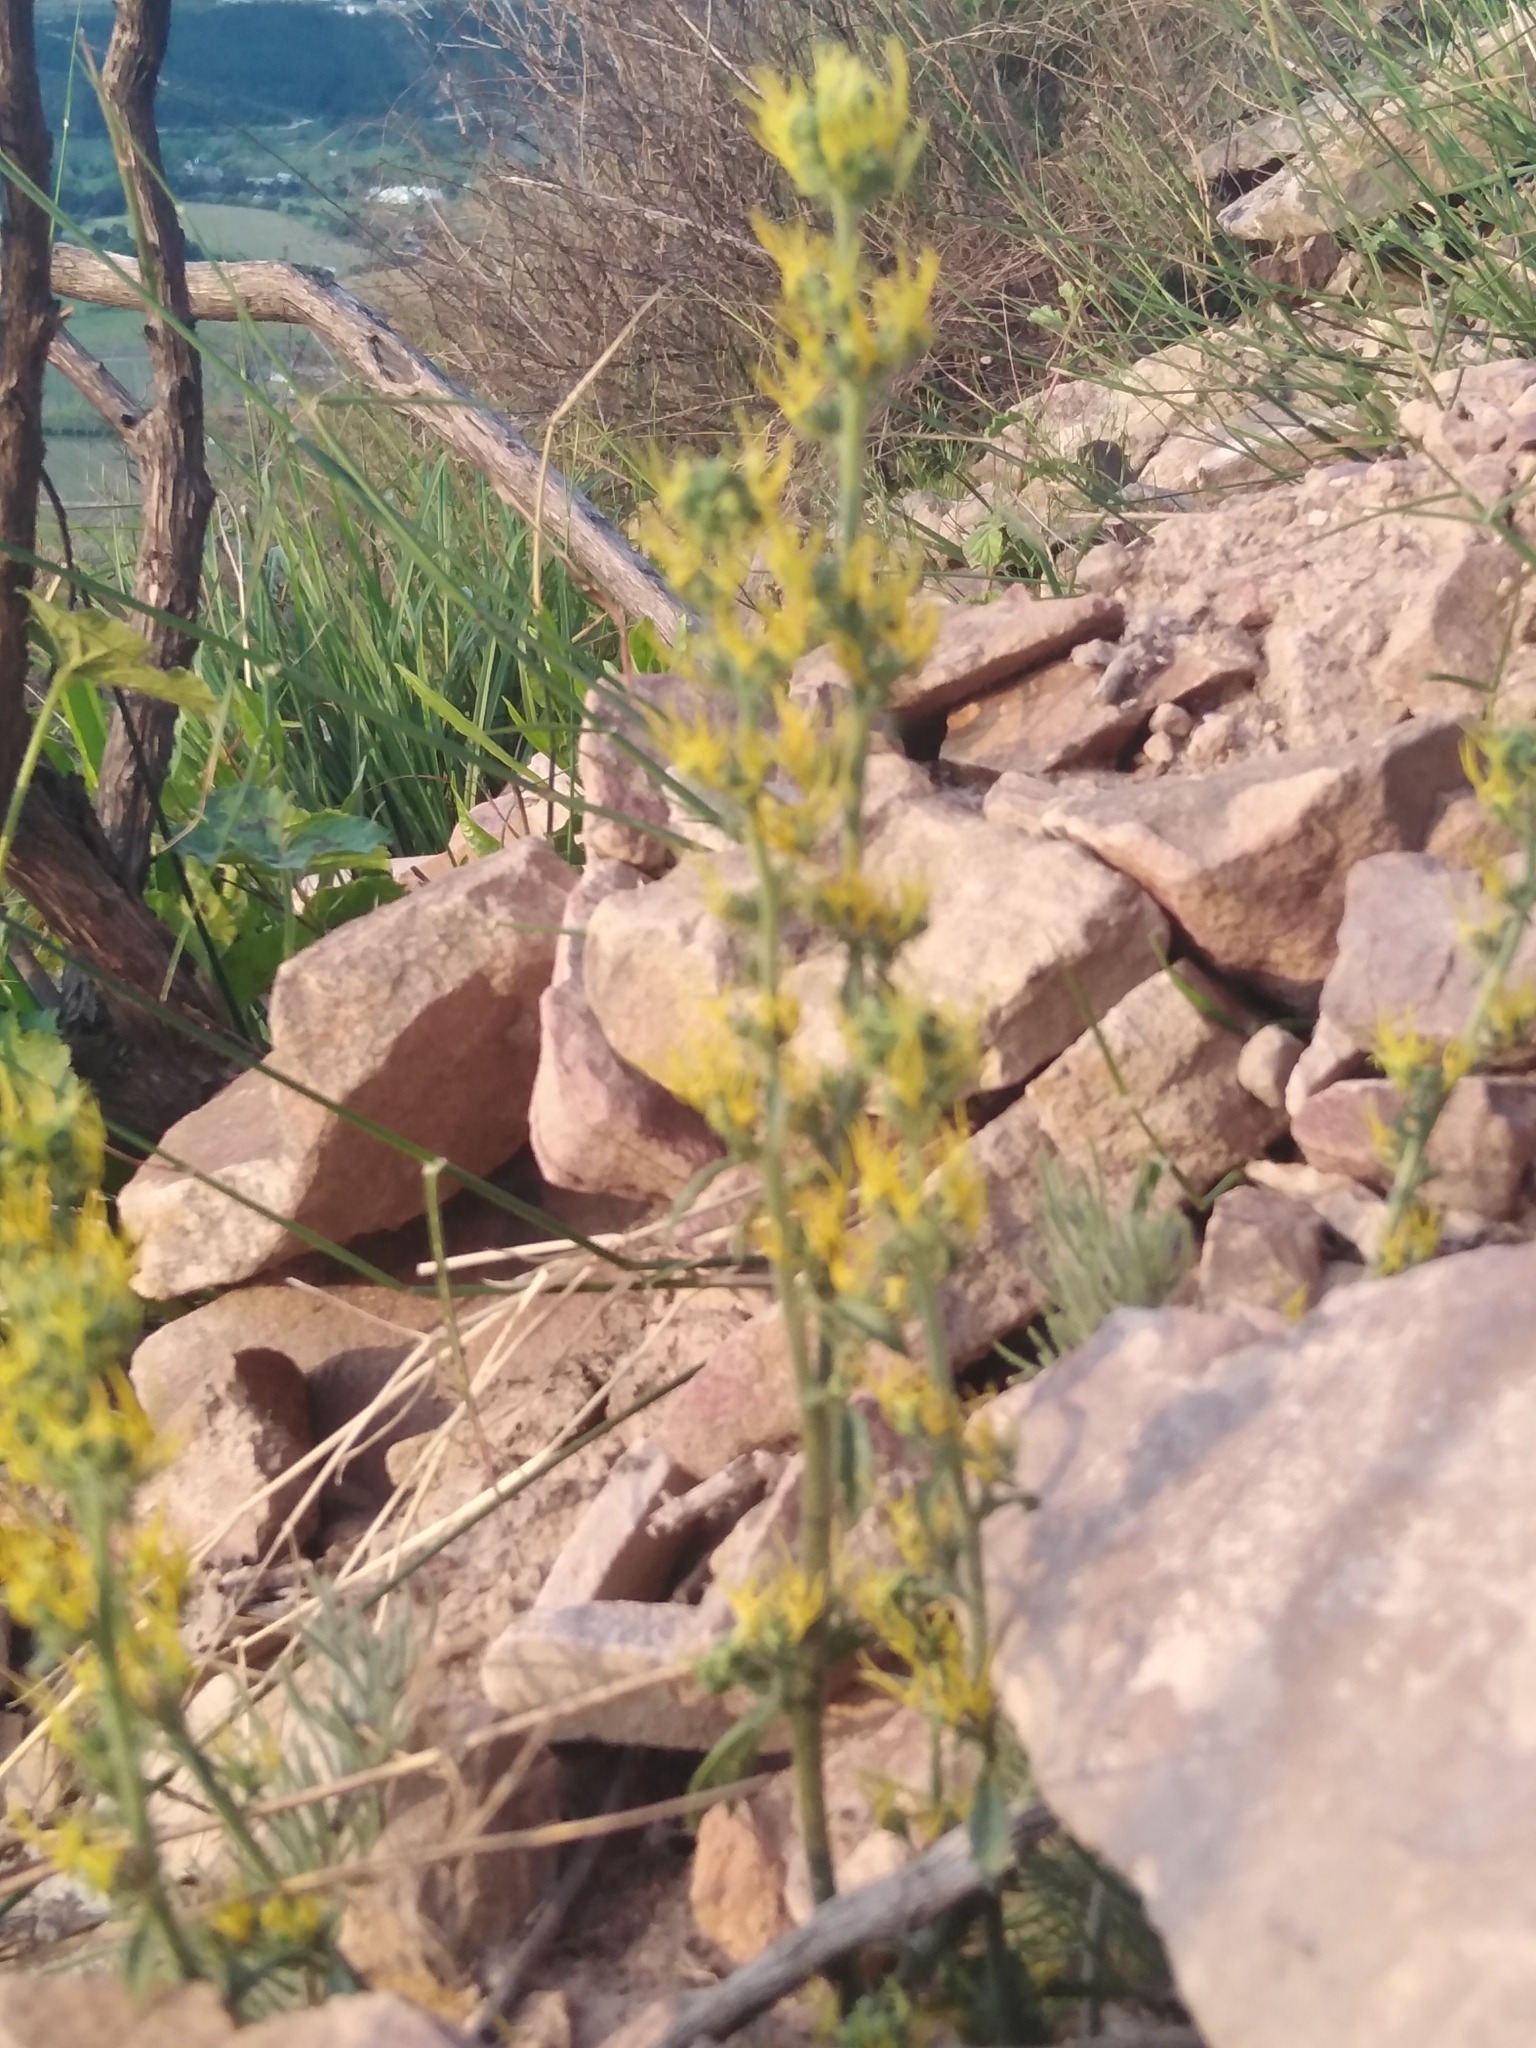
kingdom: Plantae
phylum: Tracheophyta
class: Magnoliopsida
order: Lamiales
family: Scrophulariaceae
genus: Manulea
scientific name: Manulea cheiranthus
